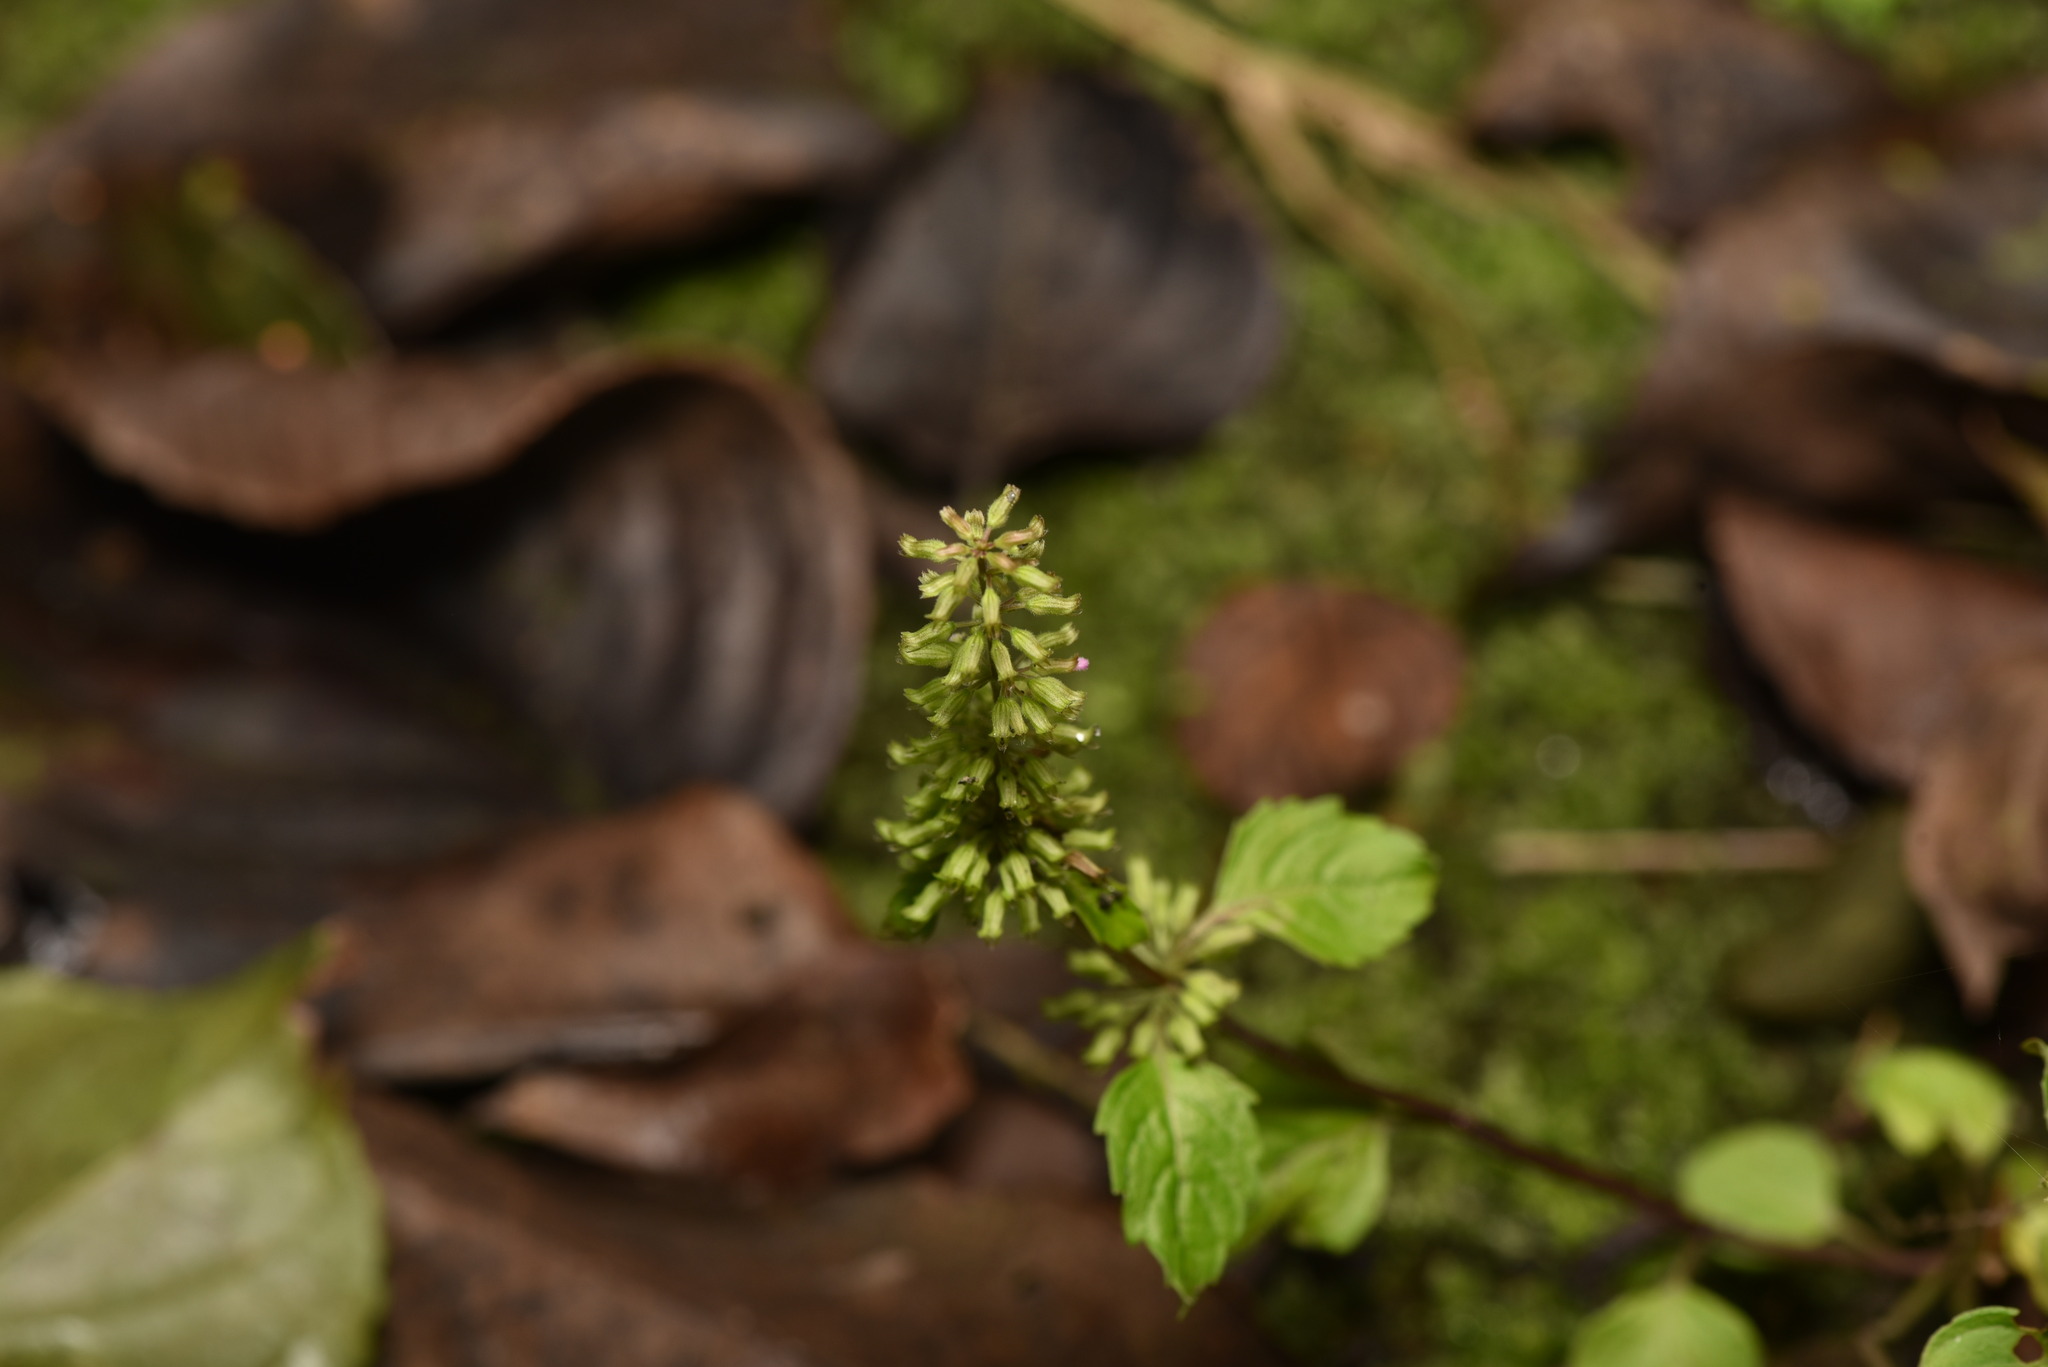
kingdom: Plantae
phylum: Tracheophyta
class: Magnoliopsida
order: Lamiales
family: Lamiaceae
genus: Clinopodium
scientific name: Clinopodium gracile
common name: Slender wild basil
